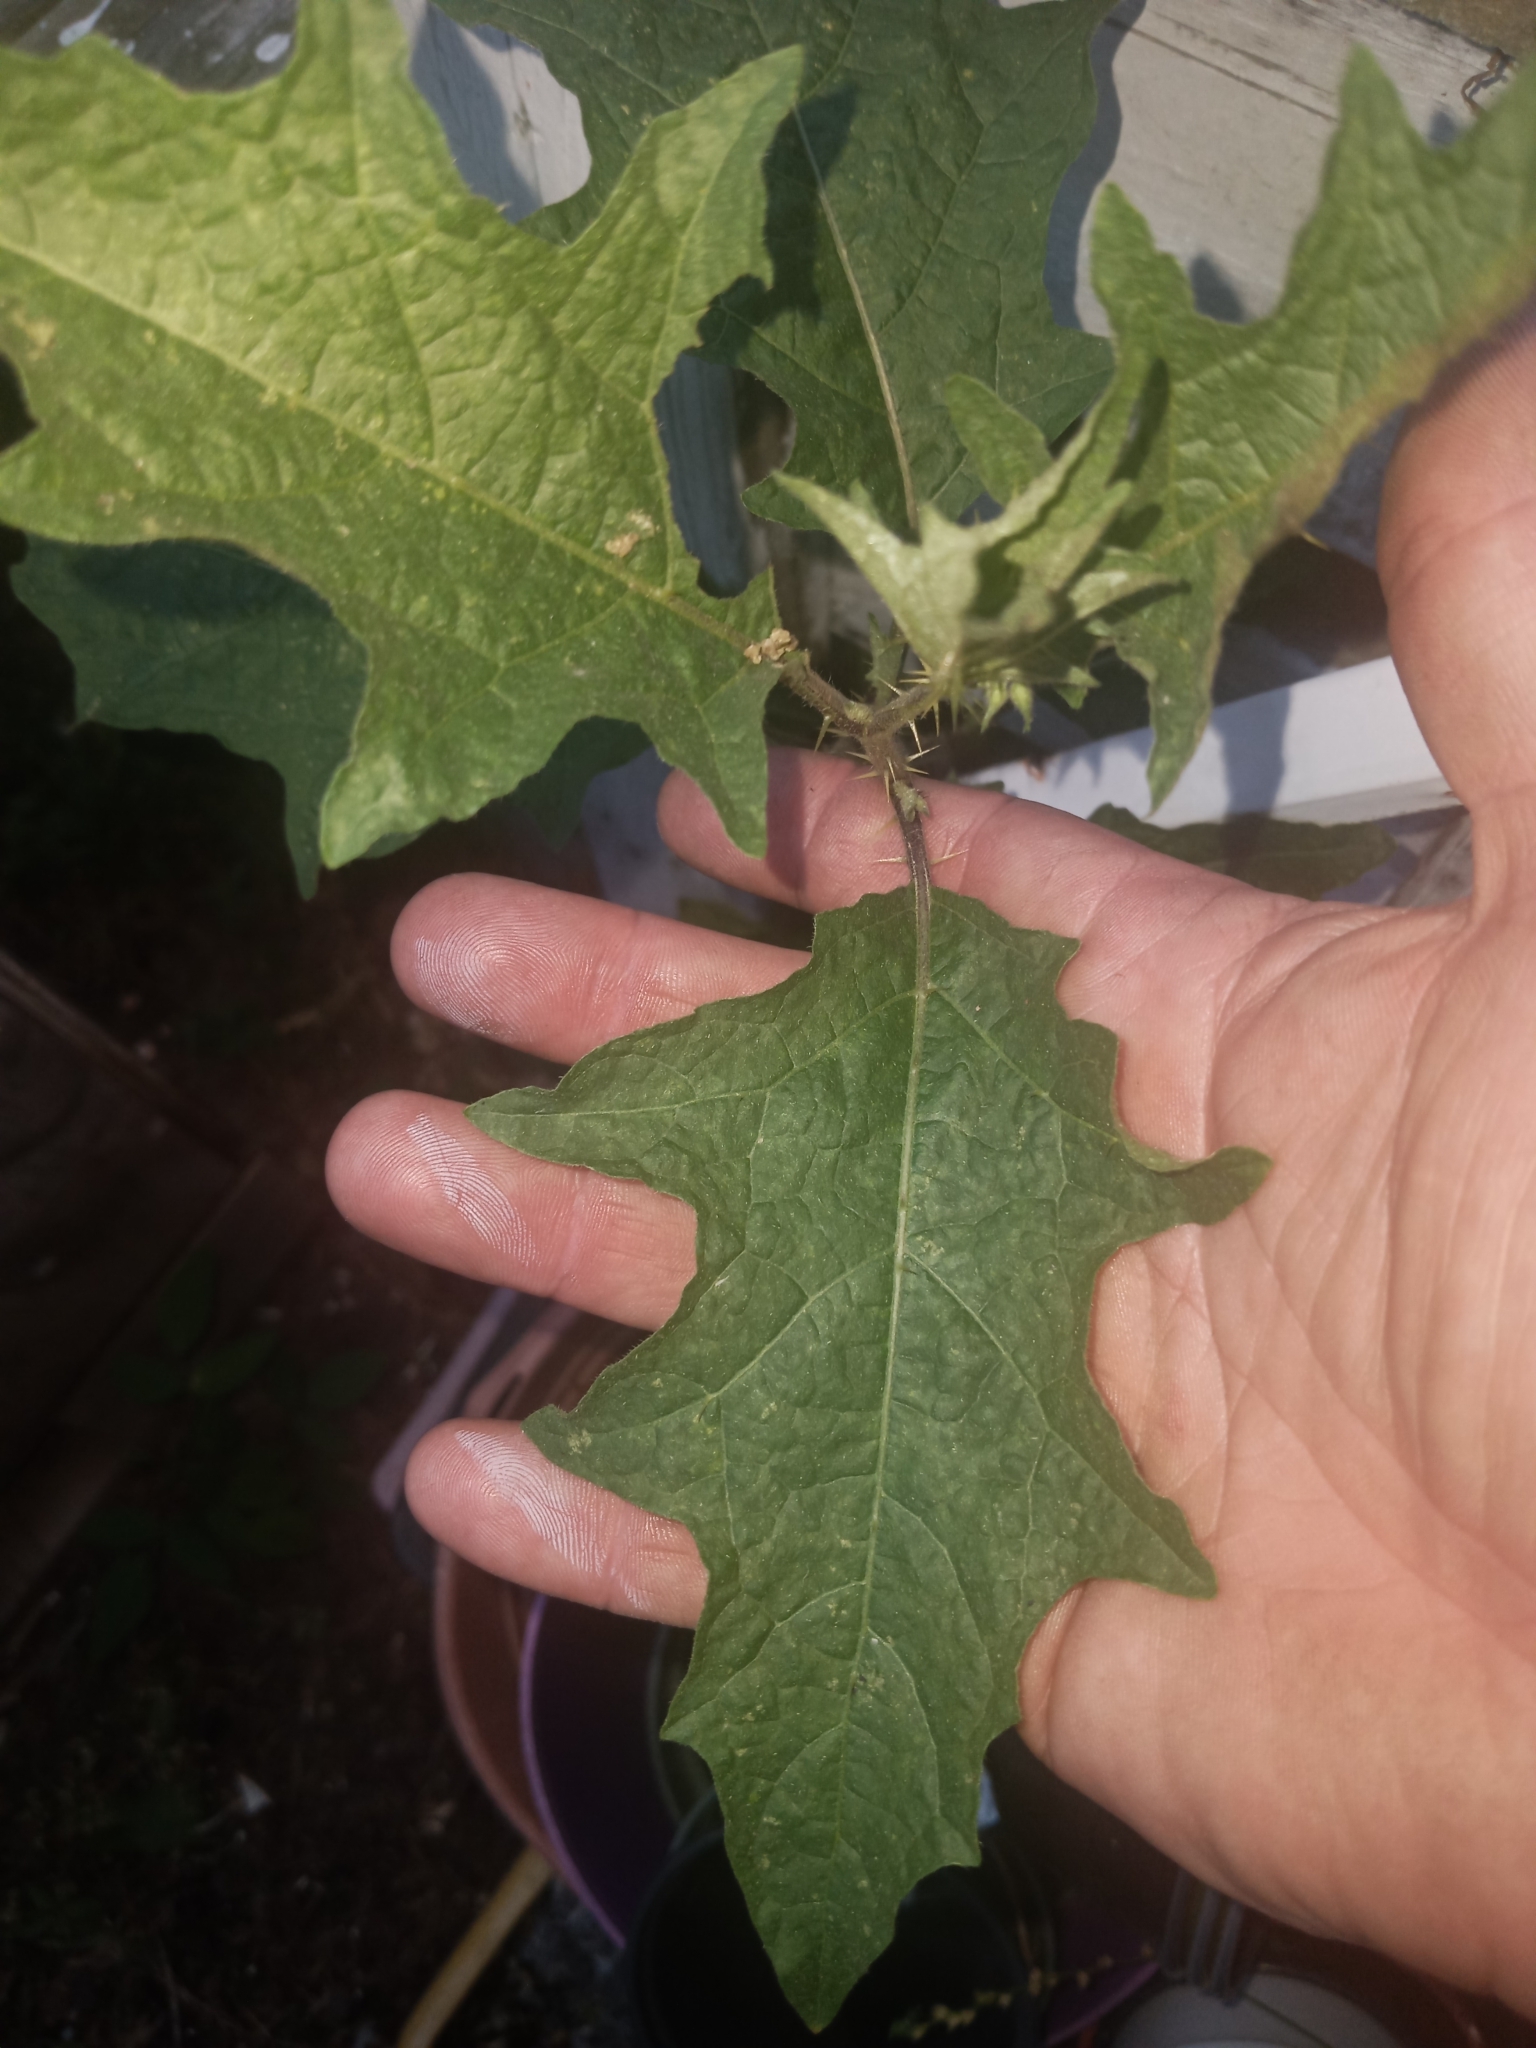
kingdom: Plantae
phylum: Tracheophyta
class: Magnoliopsida
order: Solanales
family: Solanaceae
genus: Solanum
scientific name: Solanum carolinense
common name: Horse-nettle
